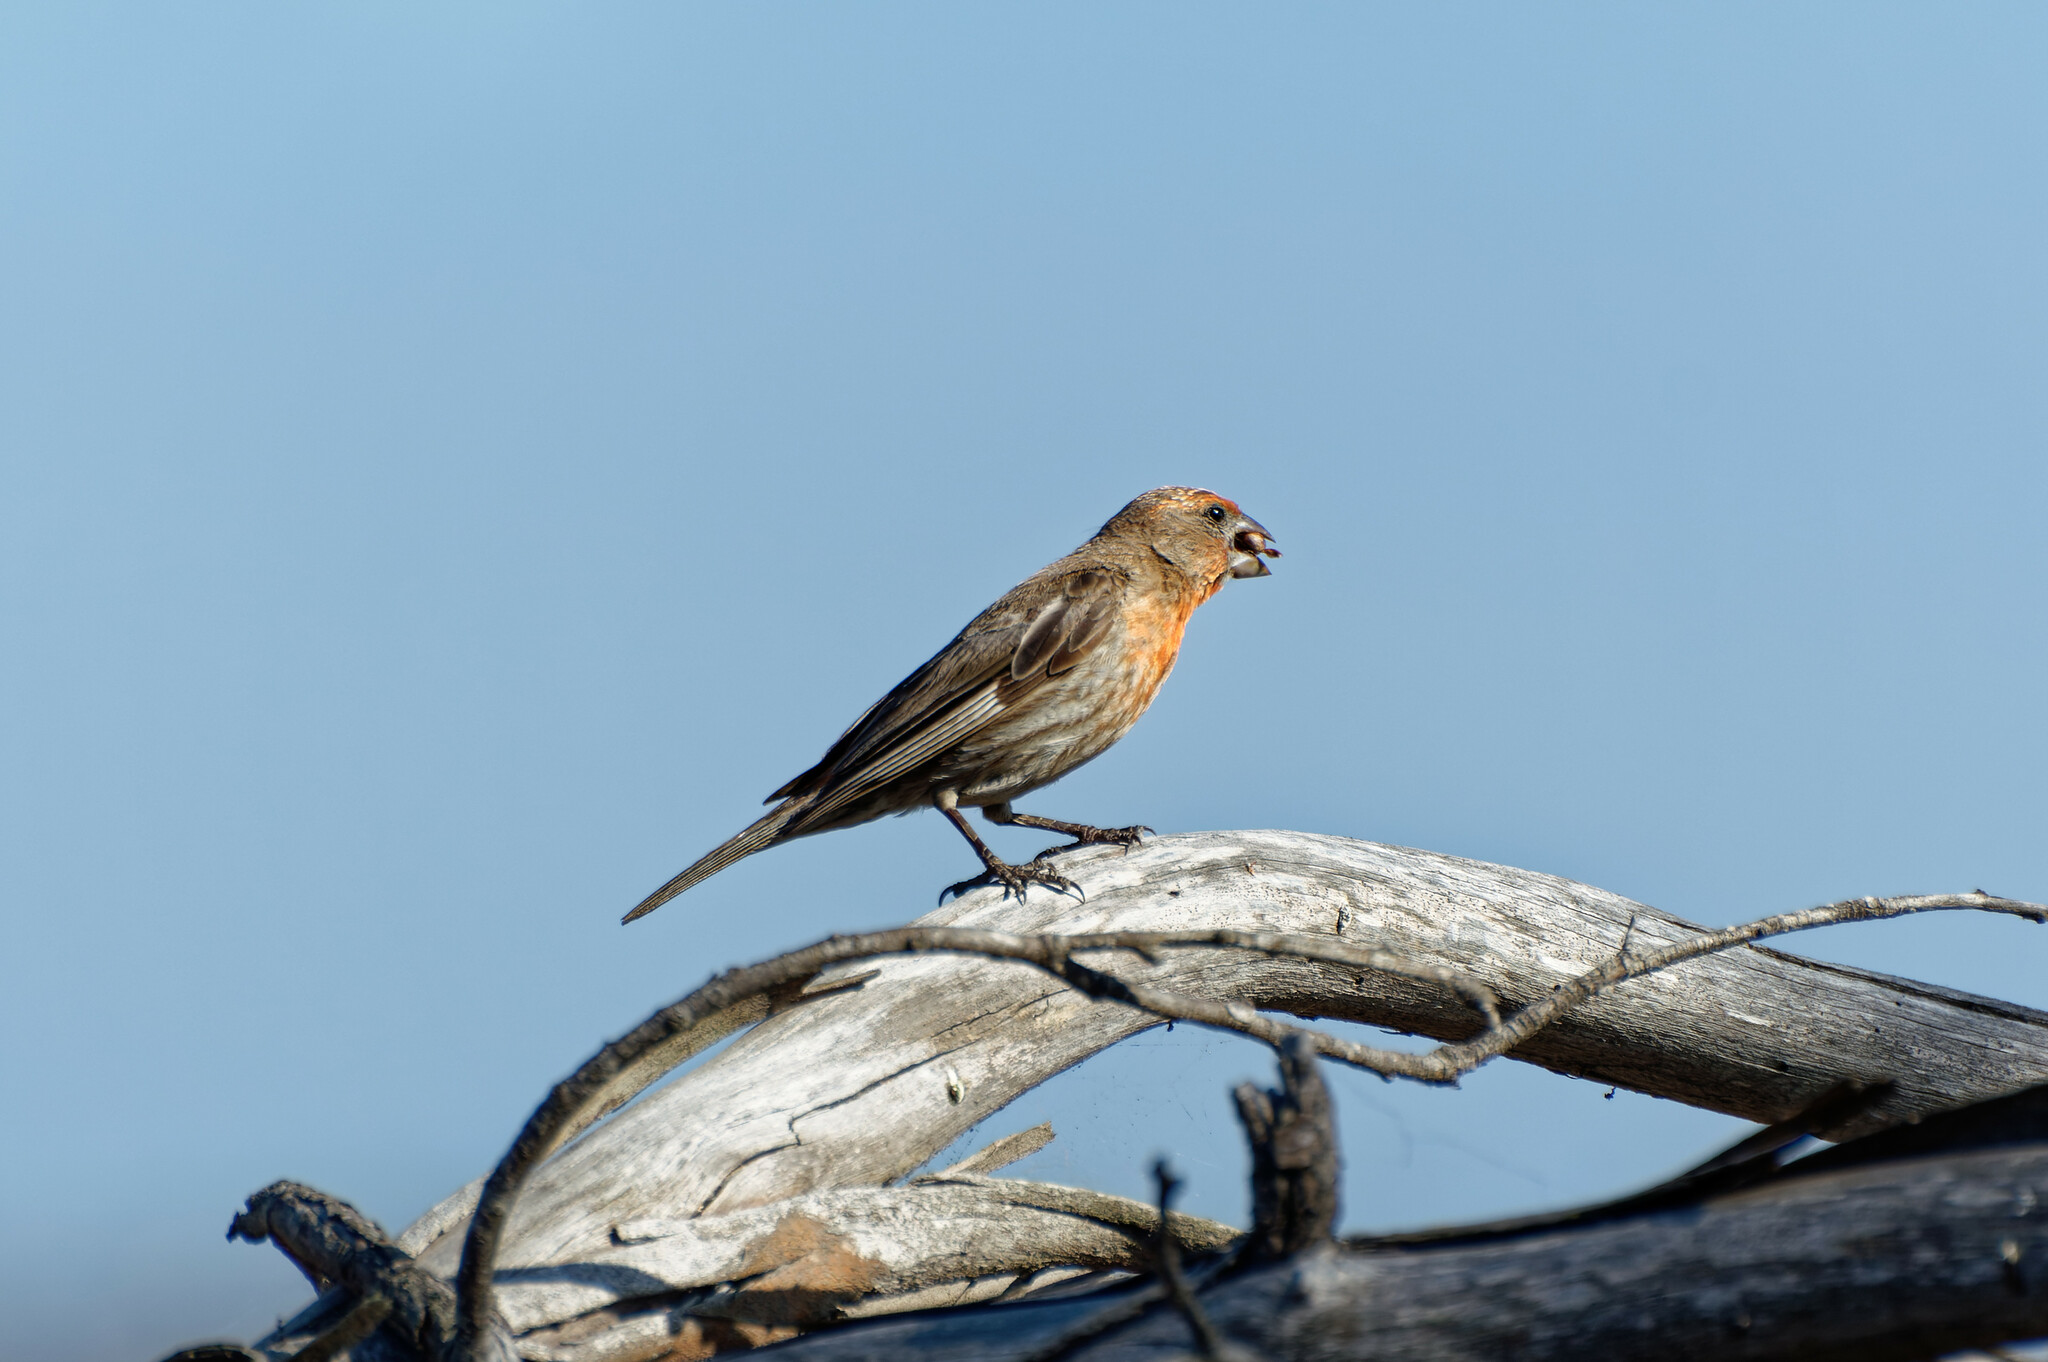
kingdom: Animalia
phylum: Chordata
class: Aves
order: Passeriformes
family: Fringillidae
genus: Haemorhous
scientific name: Haemorhous mexicanus
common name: House finch
